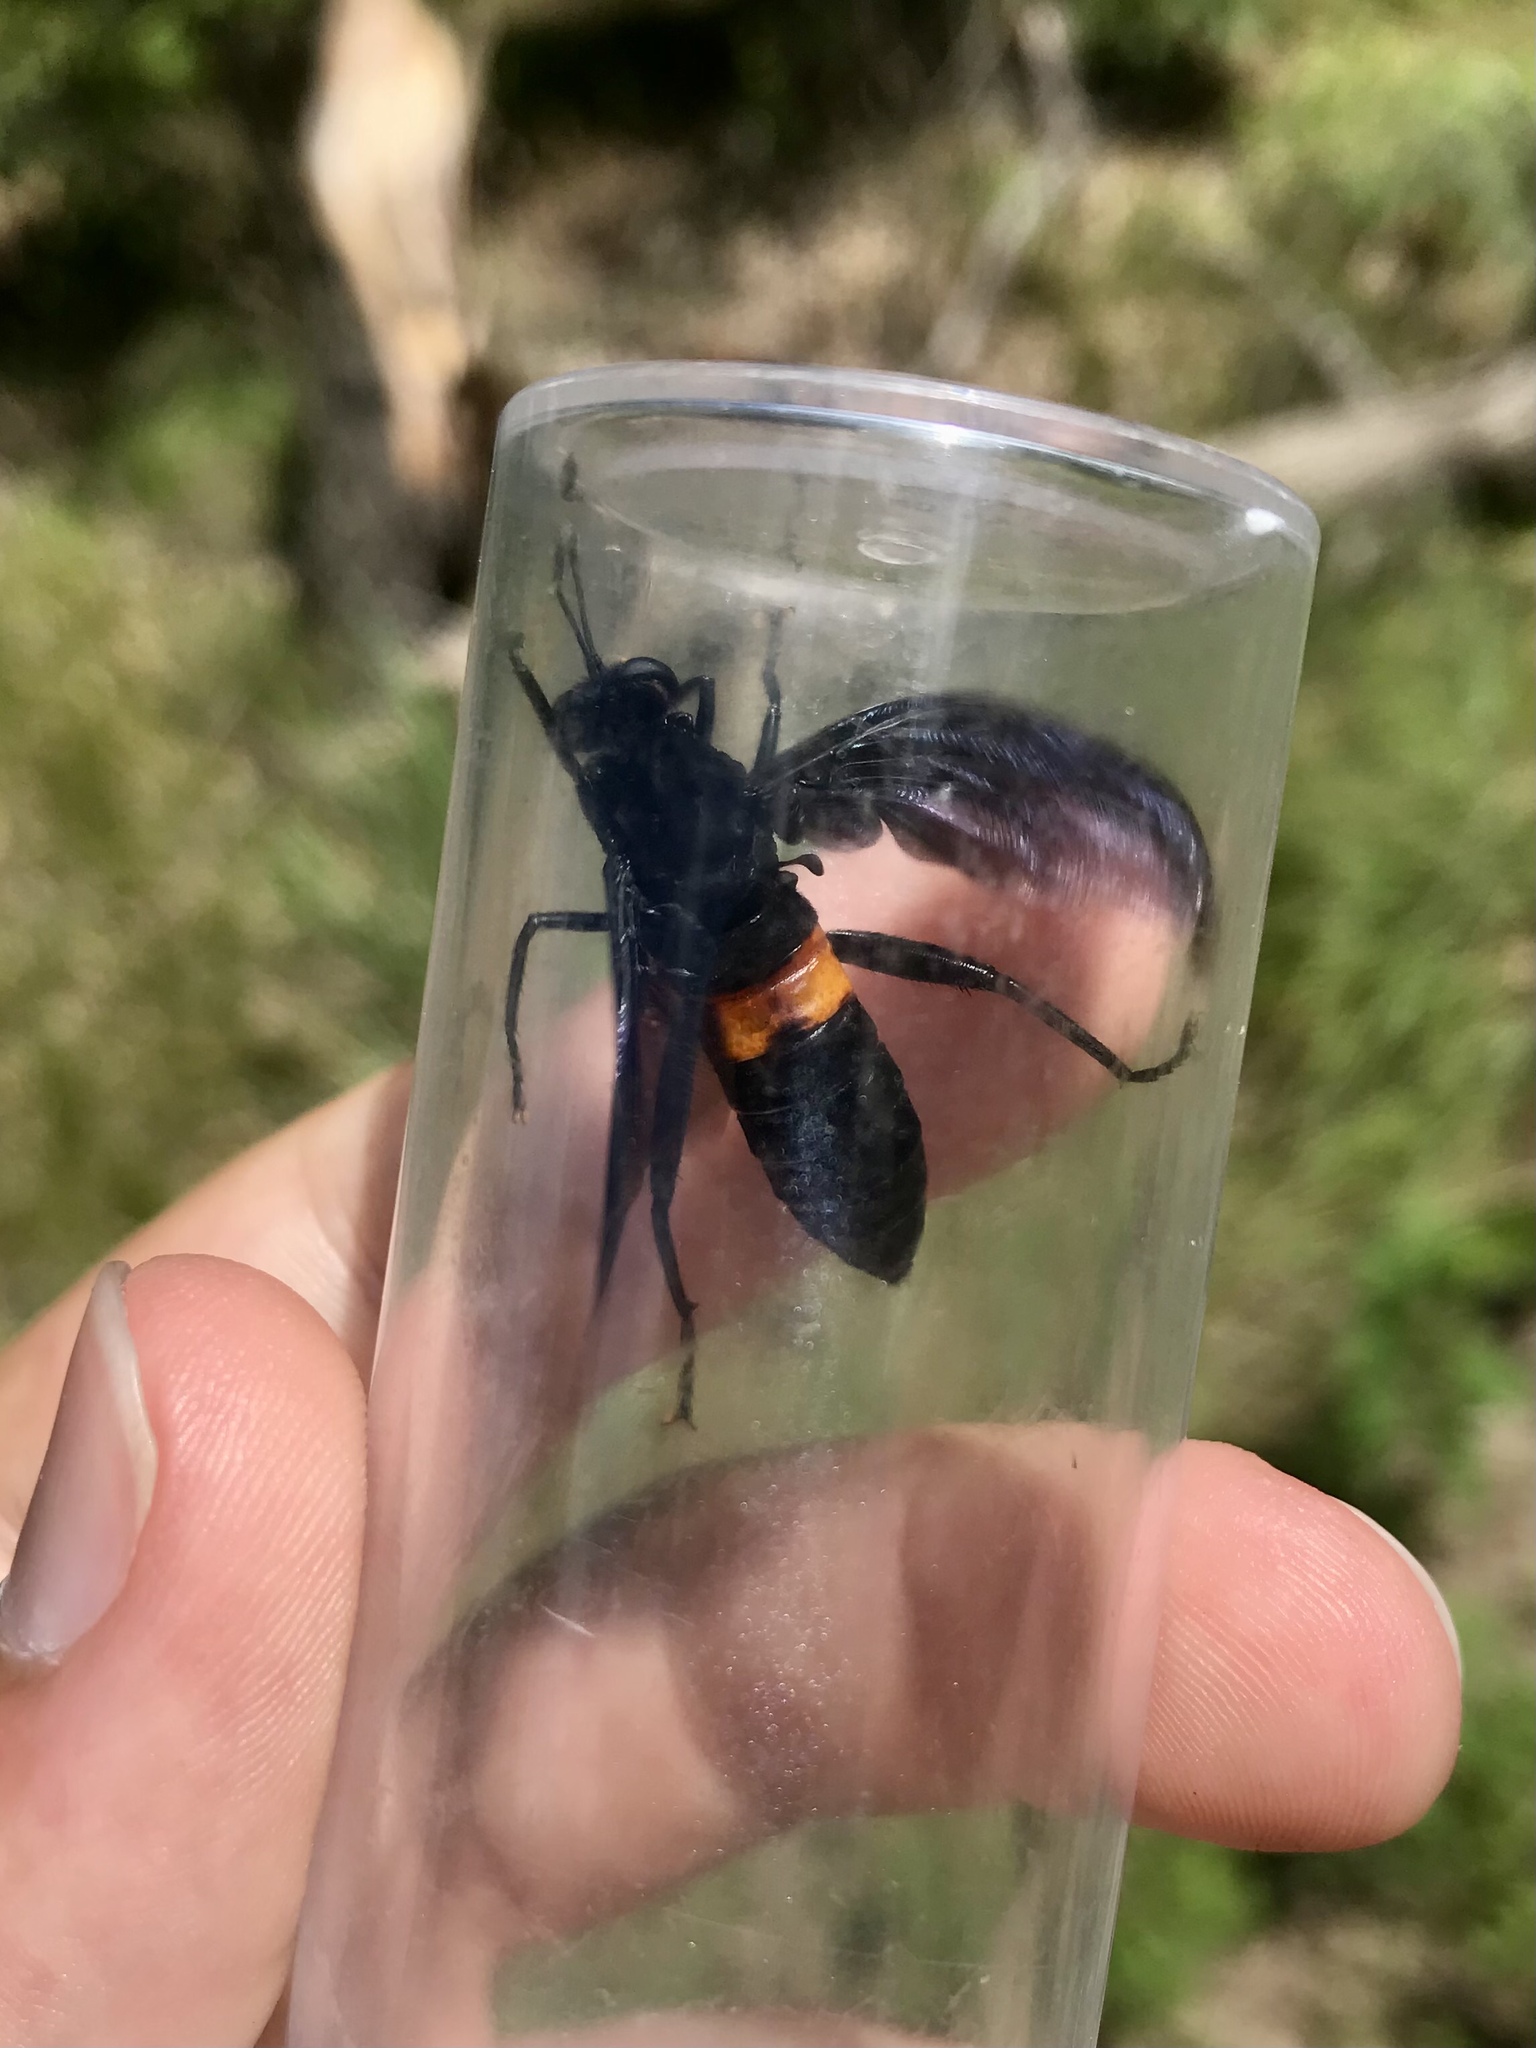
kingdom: Animalia
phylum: Arthropoda
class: Insecta
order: Diptera
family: Mydidae
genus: Mydas
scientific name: Mydas clavatus
